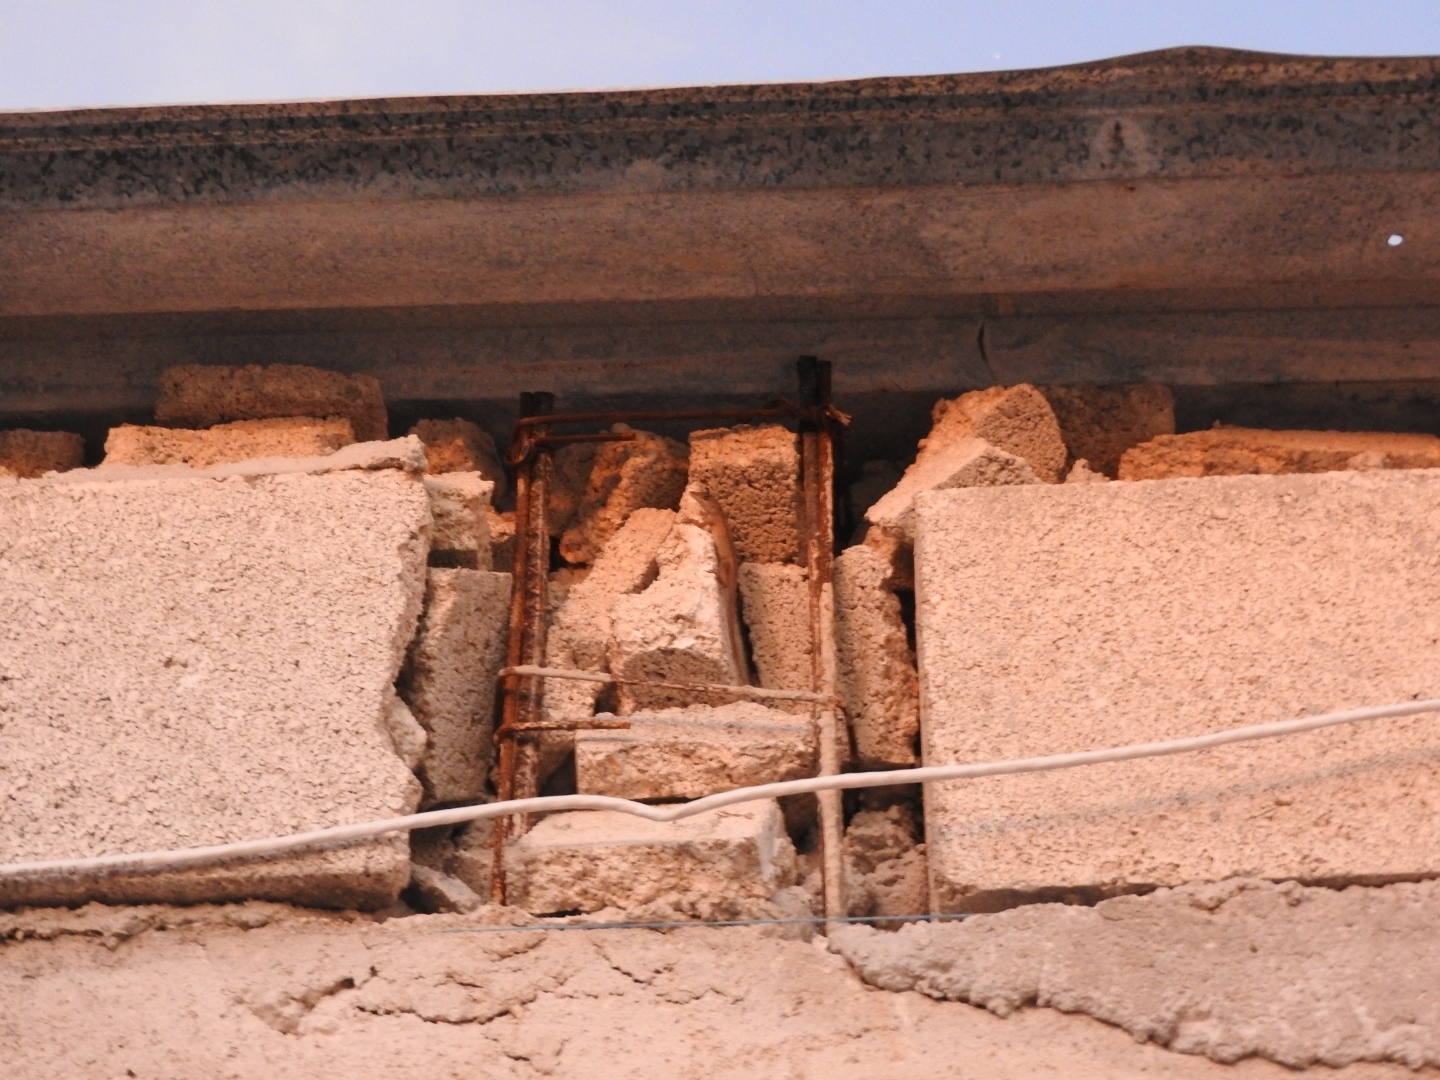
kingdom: Animalia
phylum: Chordata
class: Squamata
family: Dactyloidae
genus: Anolis
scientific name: Anolis sagrei
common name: Brown anole
